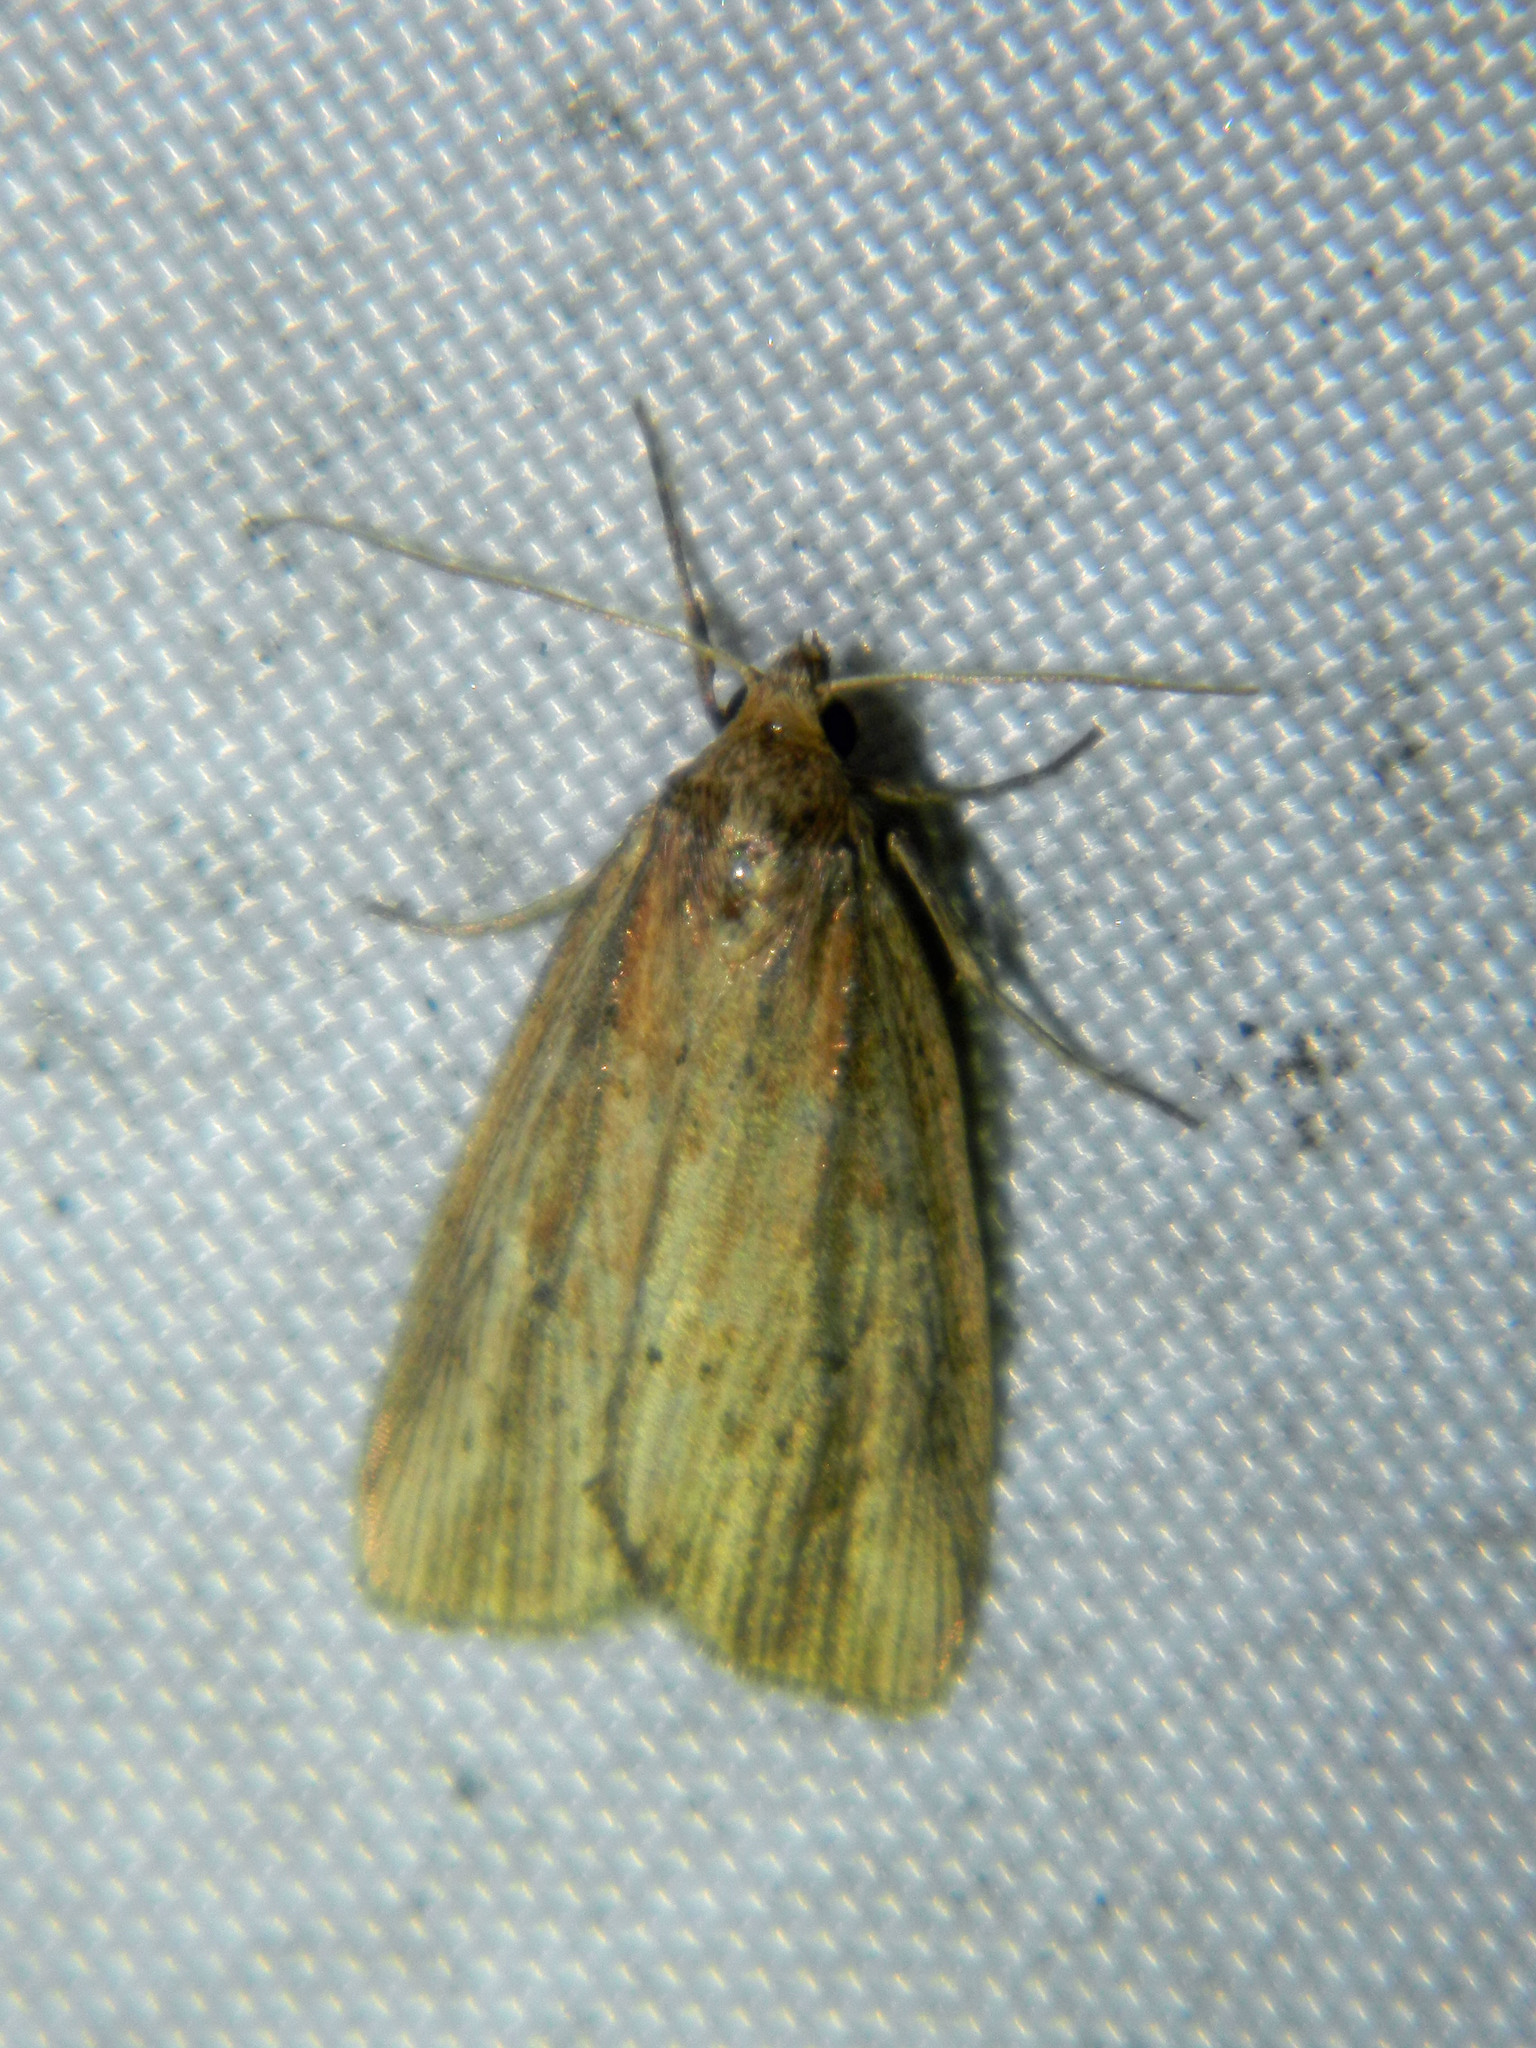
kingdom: Animalia
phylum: Arthropoda
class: Insecta
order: Lepidoptera
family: Noctuidae
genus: Photedes
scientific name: Photedes defecta
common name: Narrow-winged borer moth
